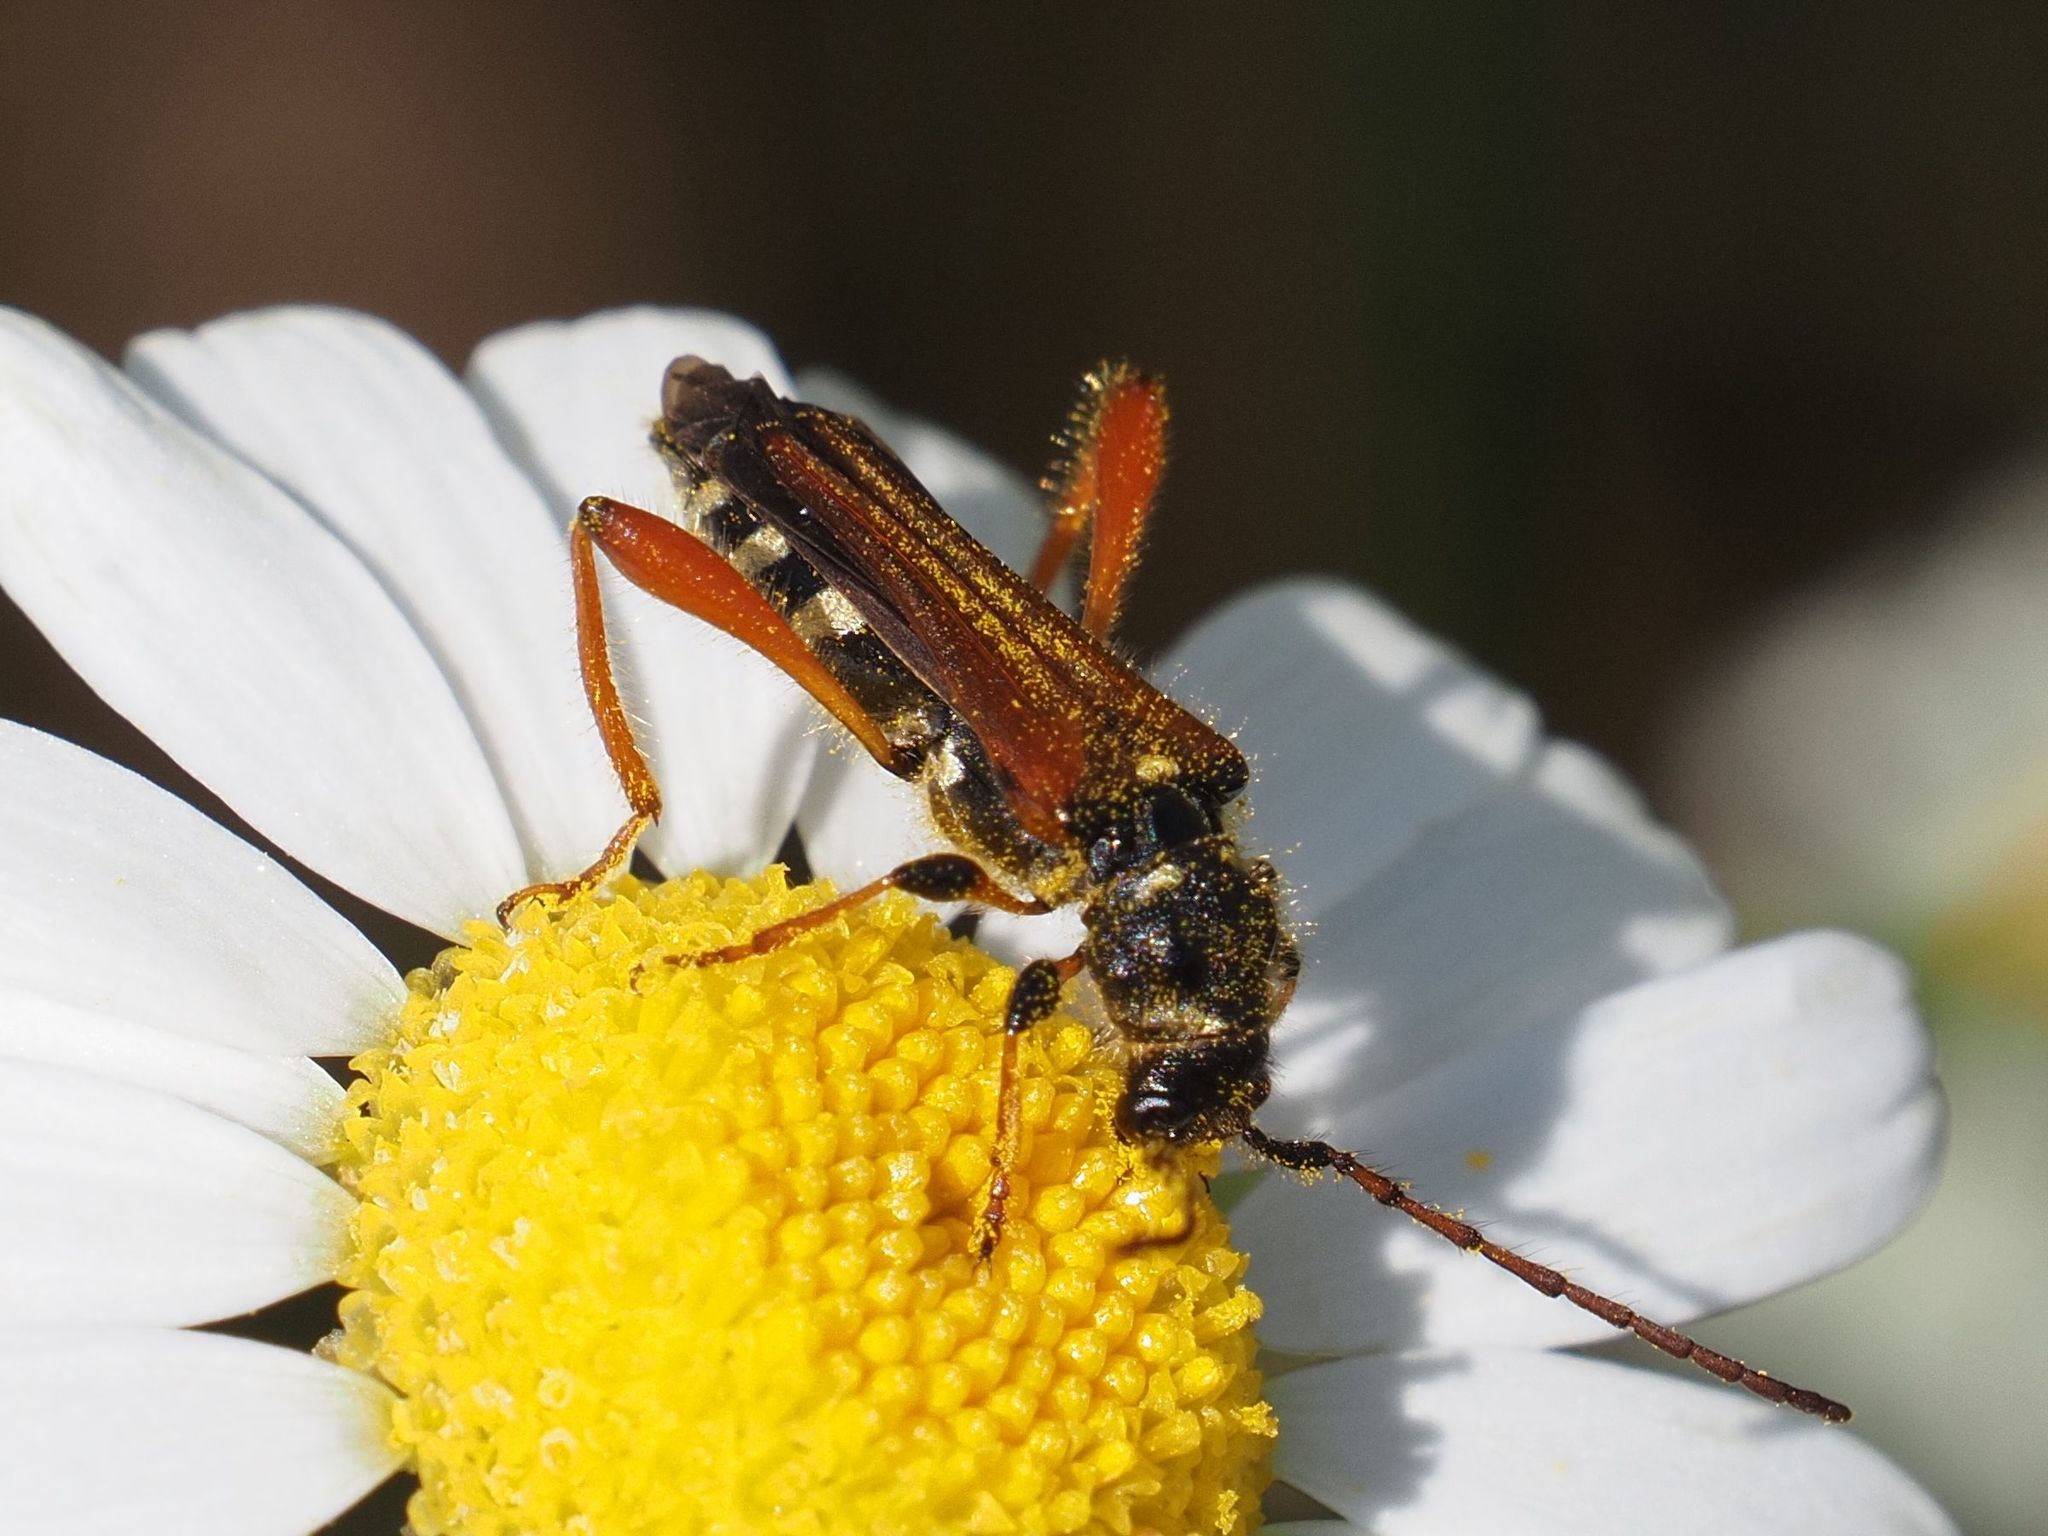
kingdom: Animalia
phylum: Arthropoda
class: Insecta
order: Coleoptera
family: Cerambycidae
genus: Stenopterus
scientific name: Stenopterus rufus
